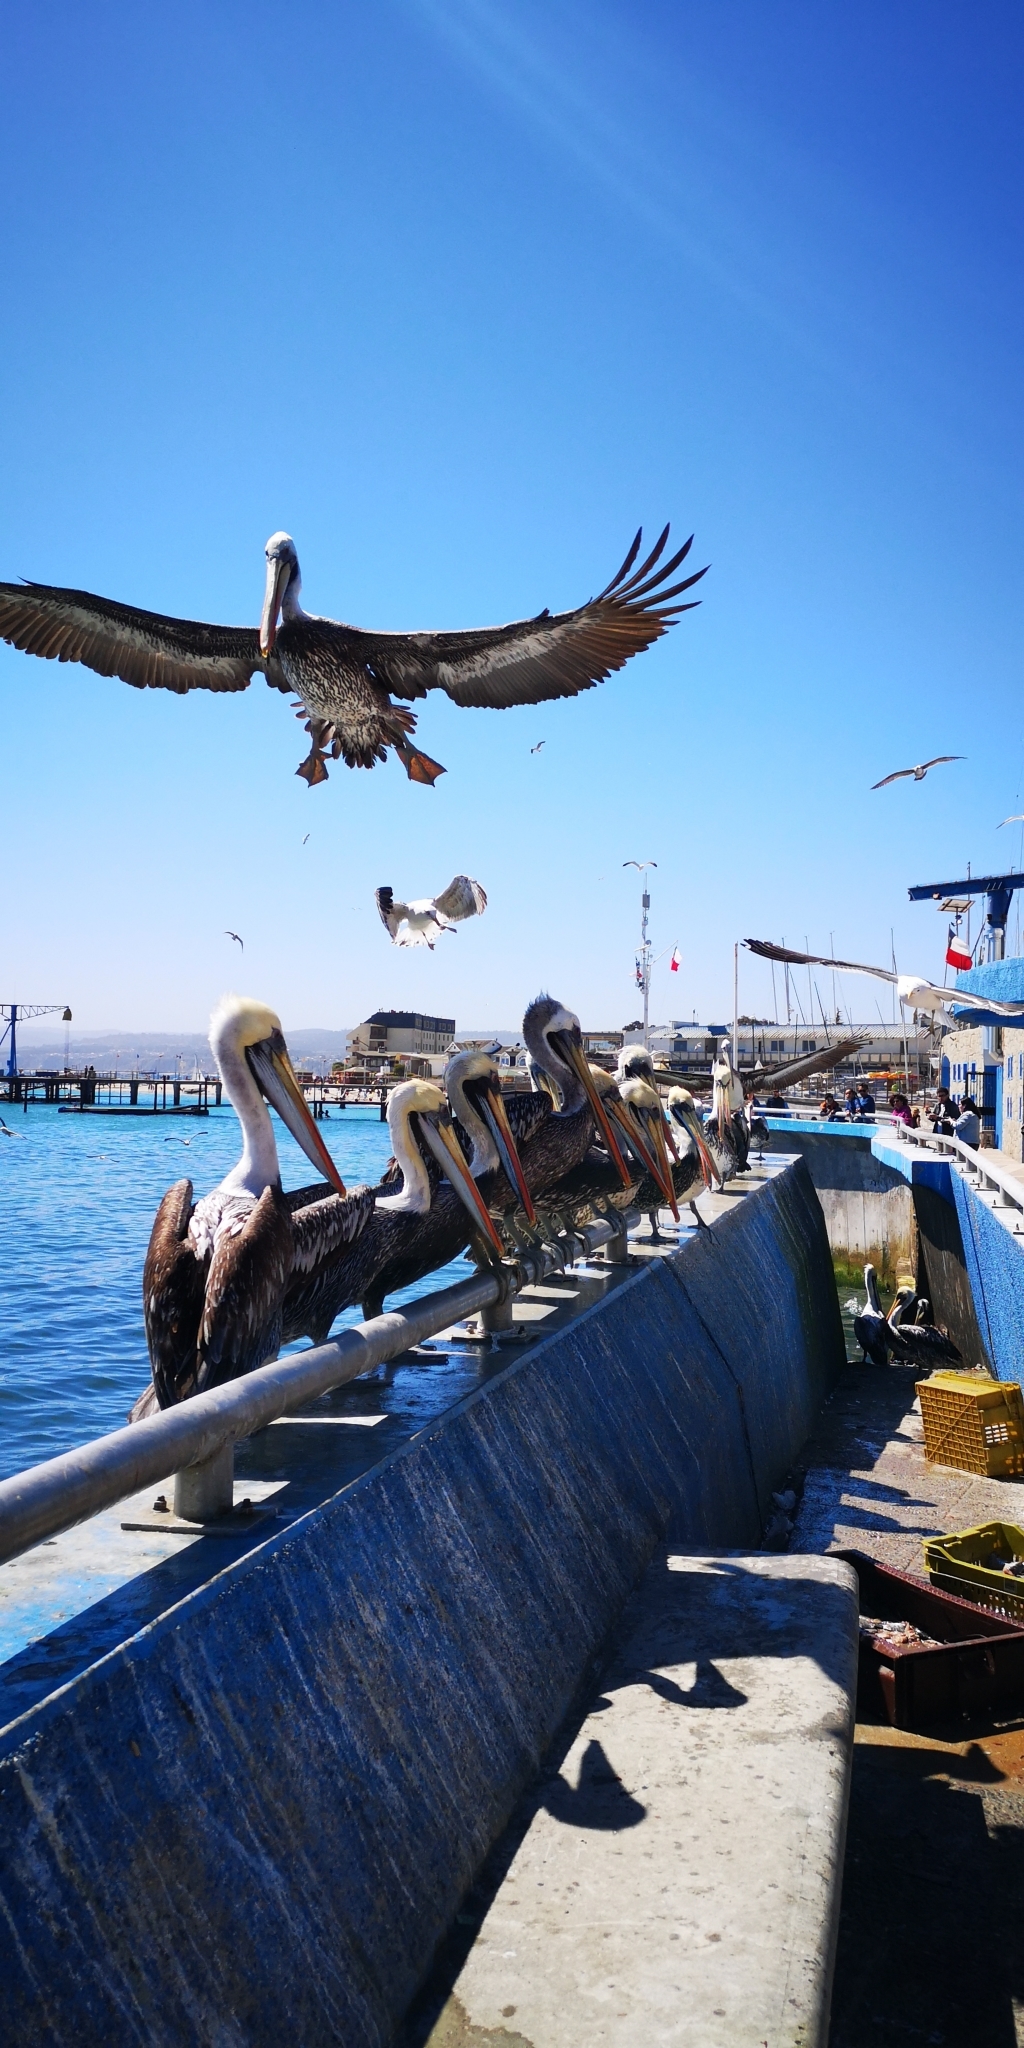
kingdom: Animalia
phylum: Chordata
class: Aves
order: Pelecaniformes
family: Pelecanidae
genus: Pelecanus
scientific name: Pelecanus thagus
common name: Peruvian pelican
